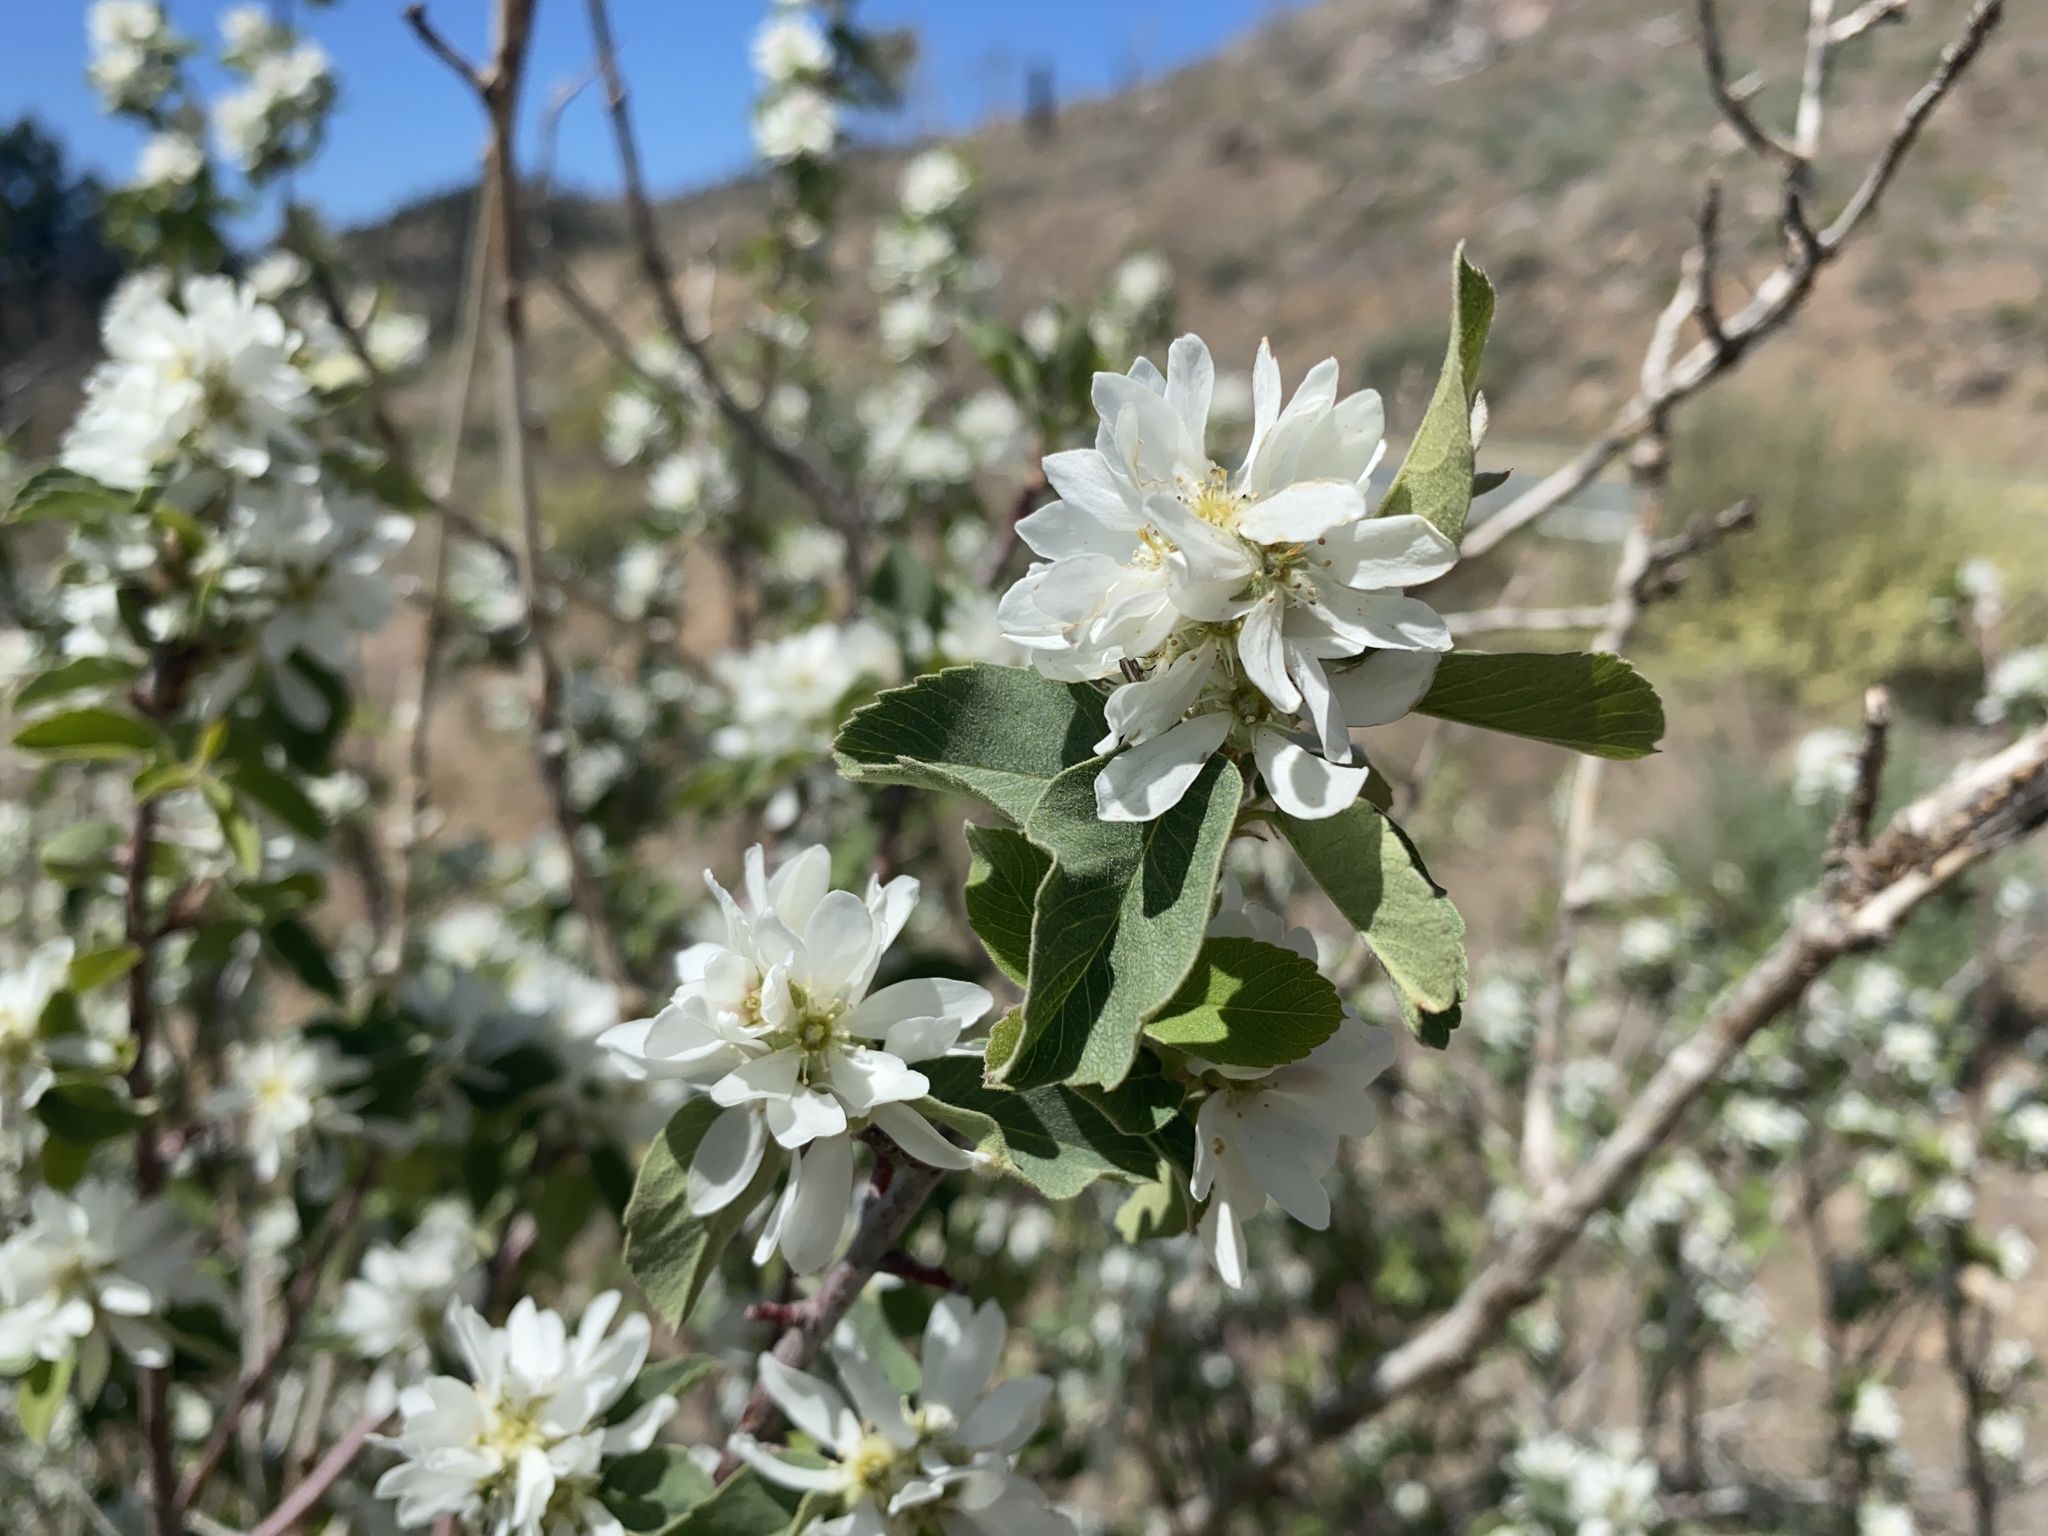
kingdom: Plantae
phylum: Tracheophyta
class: Magnoliopsida
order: Rosales
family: Rosaceae
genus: Amelanchier
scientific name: Amelanchier utahensis
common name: Utah serviceberry
